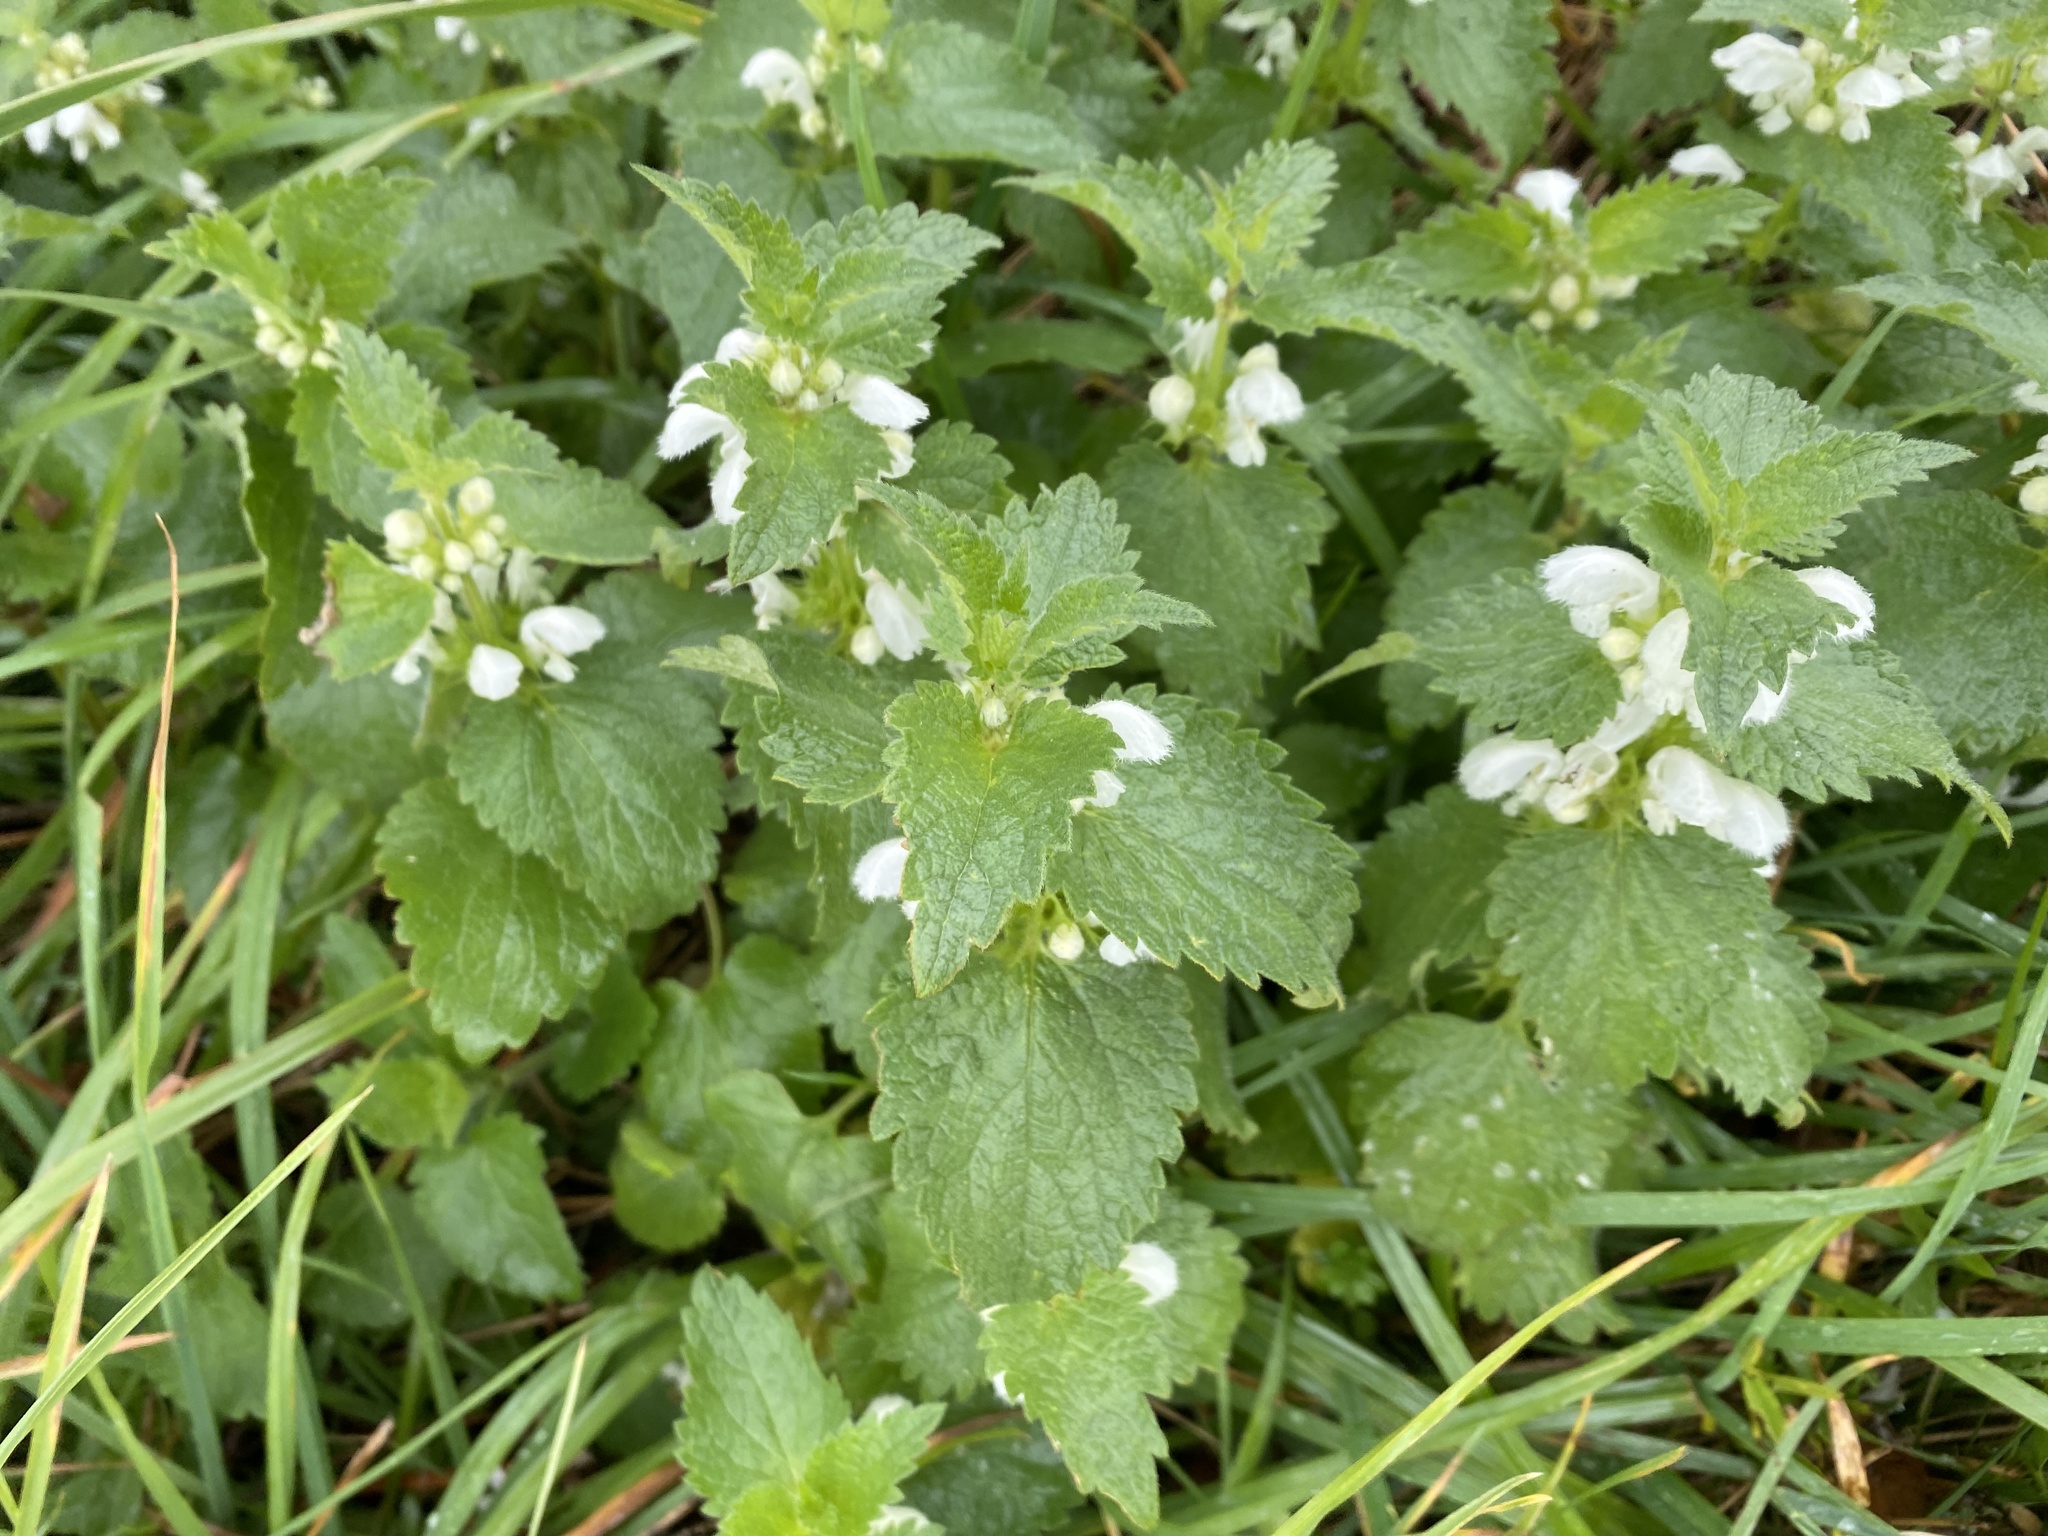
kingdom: Plantae
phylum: Tracheophyta
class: Magnoliopsida
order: Lamiales
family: Lamiaceae
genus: Lamium
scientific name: Lamium album
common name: White dead-nettle
